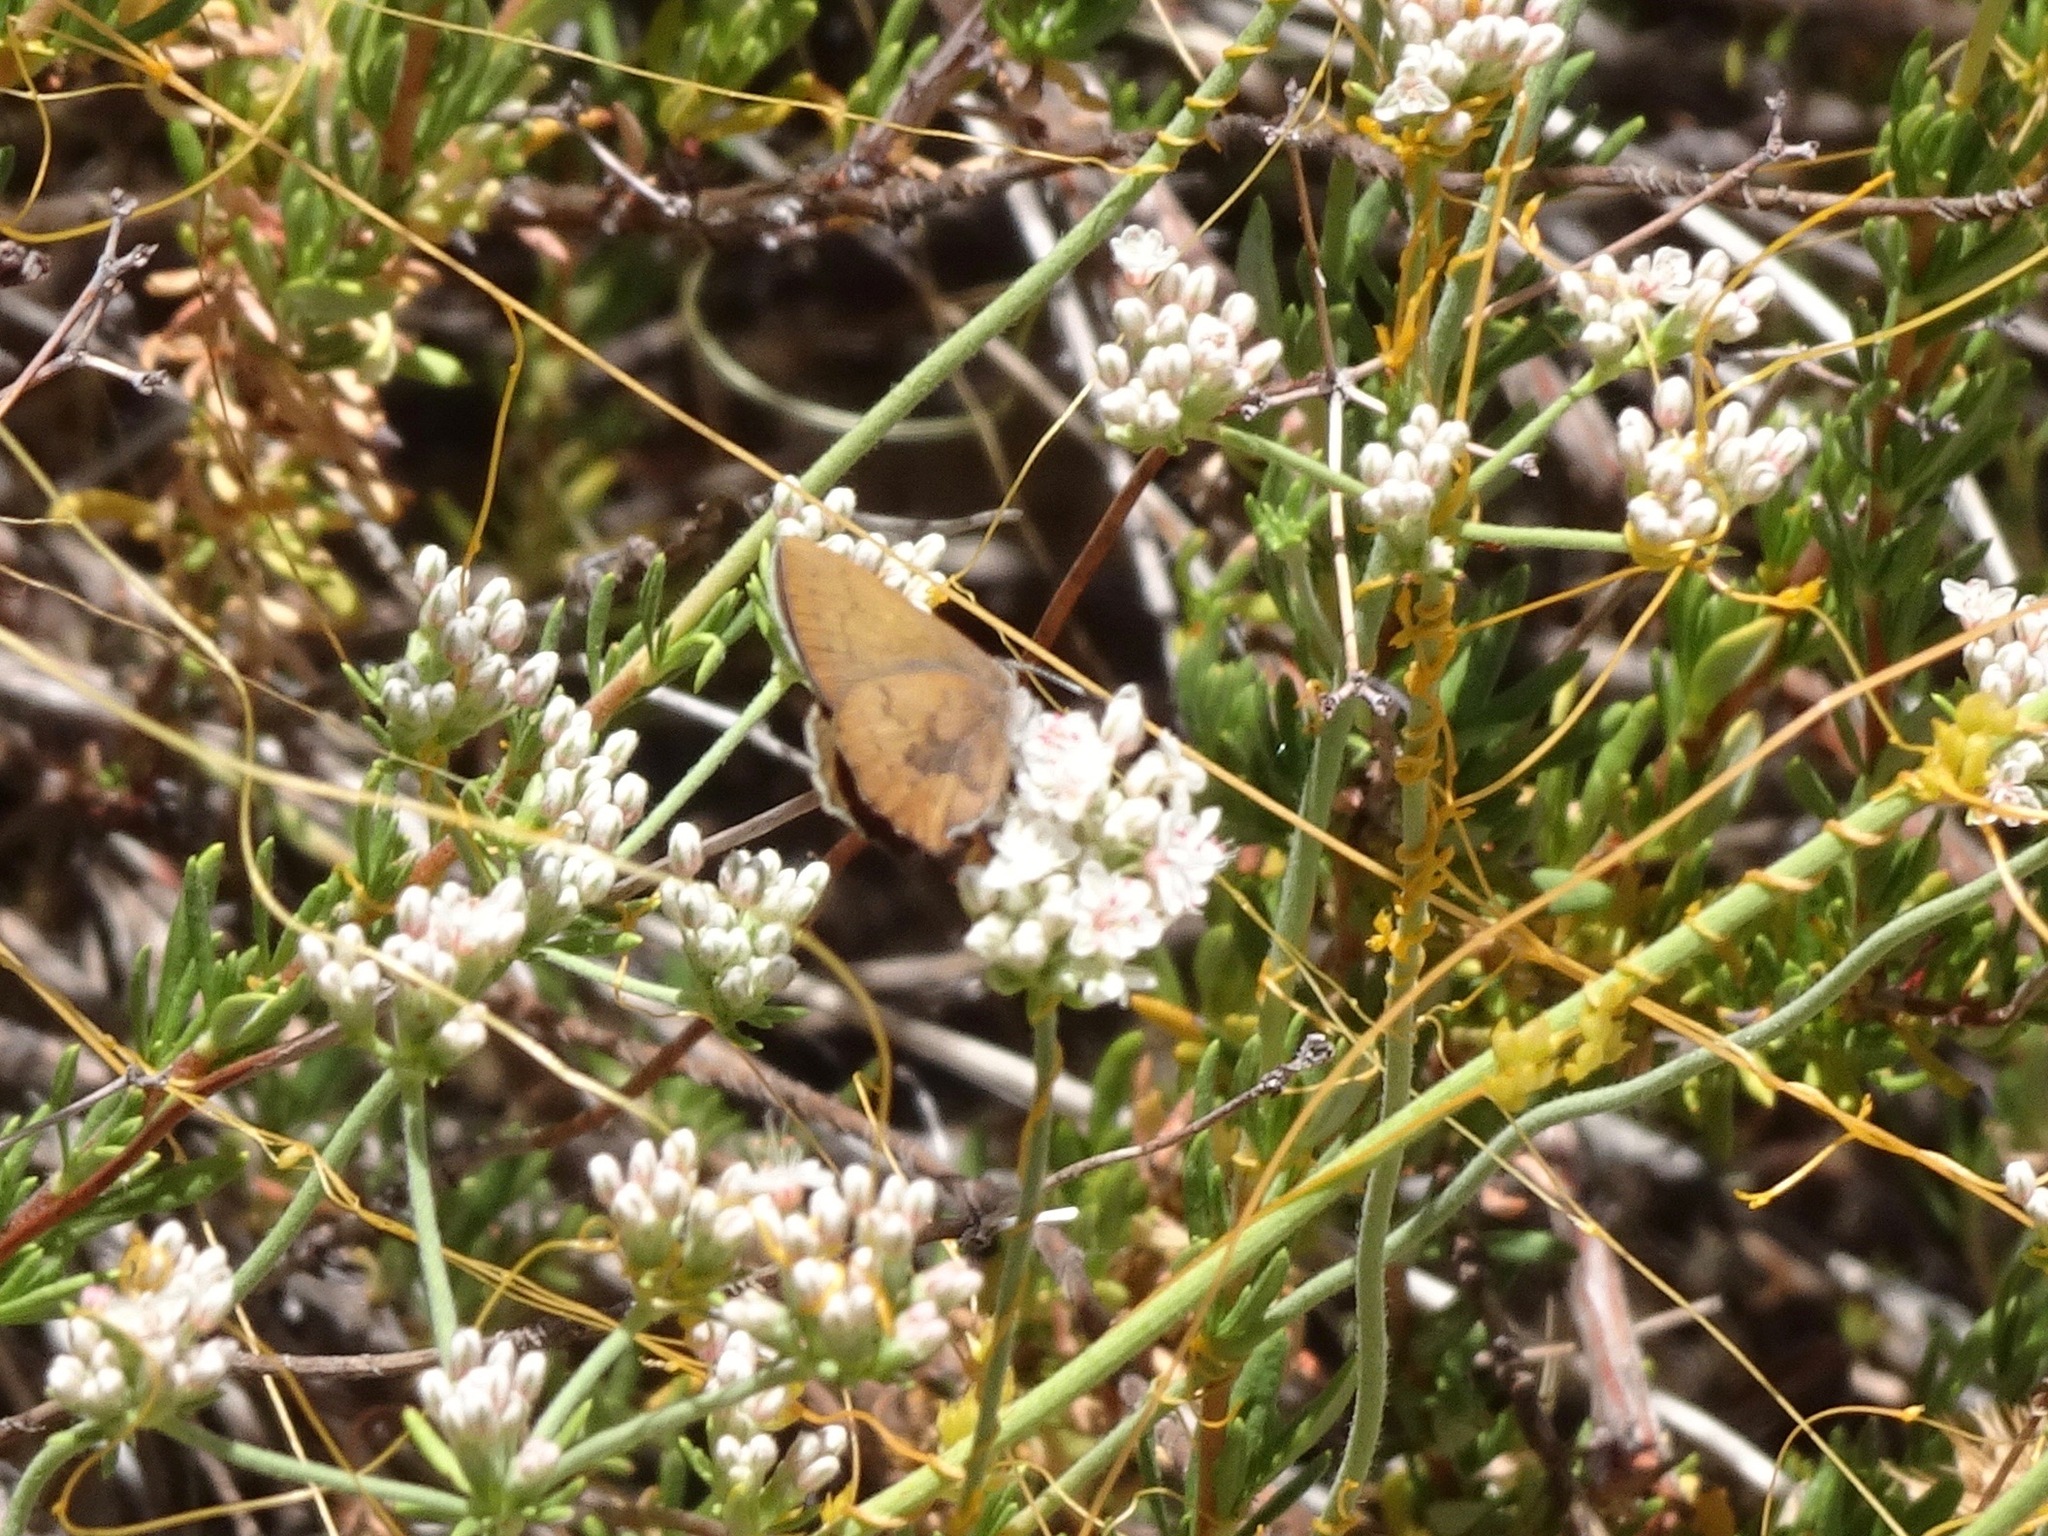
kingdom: Animalia
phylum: Arthropoda
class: Insecta
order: Lepidoptera
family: Lycaenidae
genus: Incisalia
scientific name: Incisalia irioides
